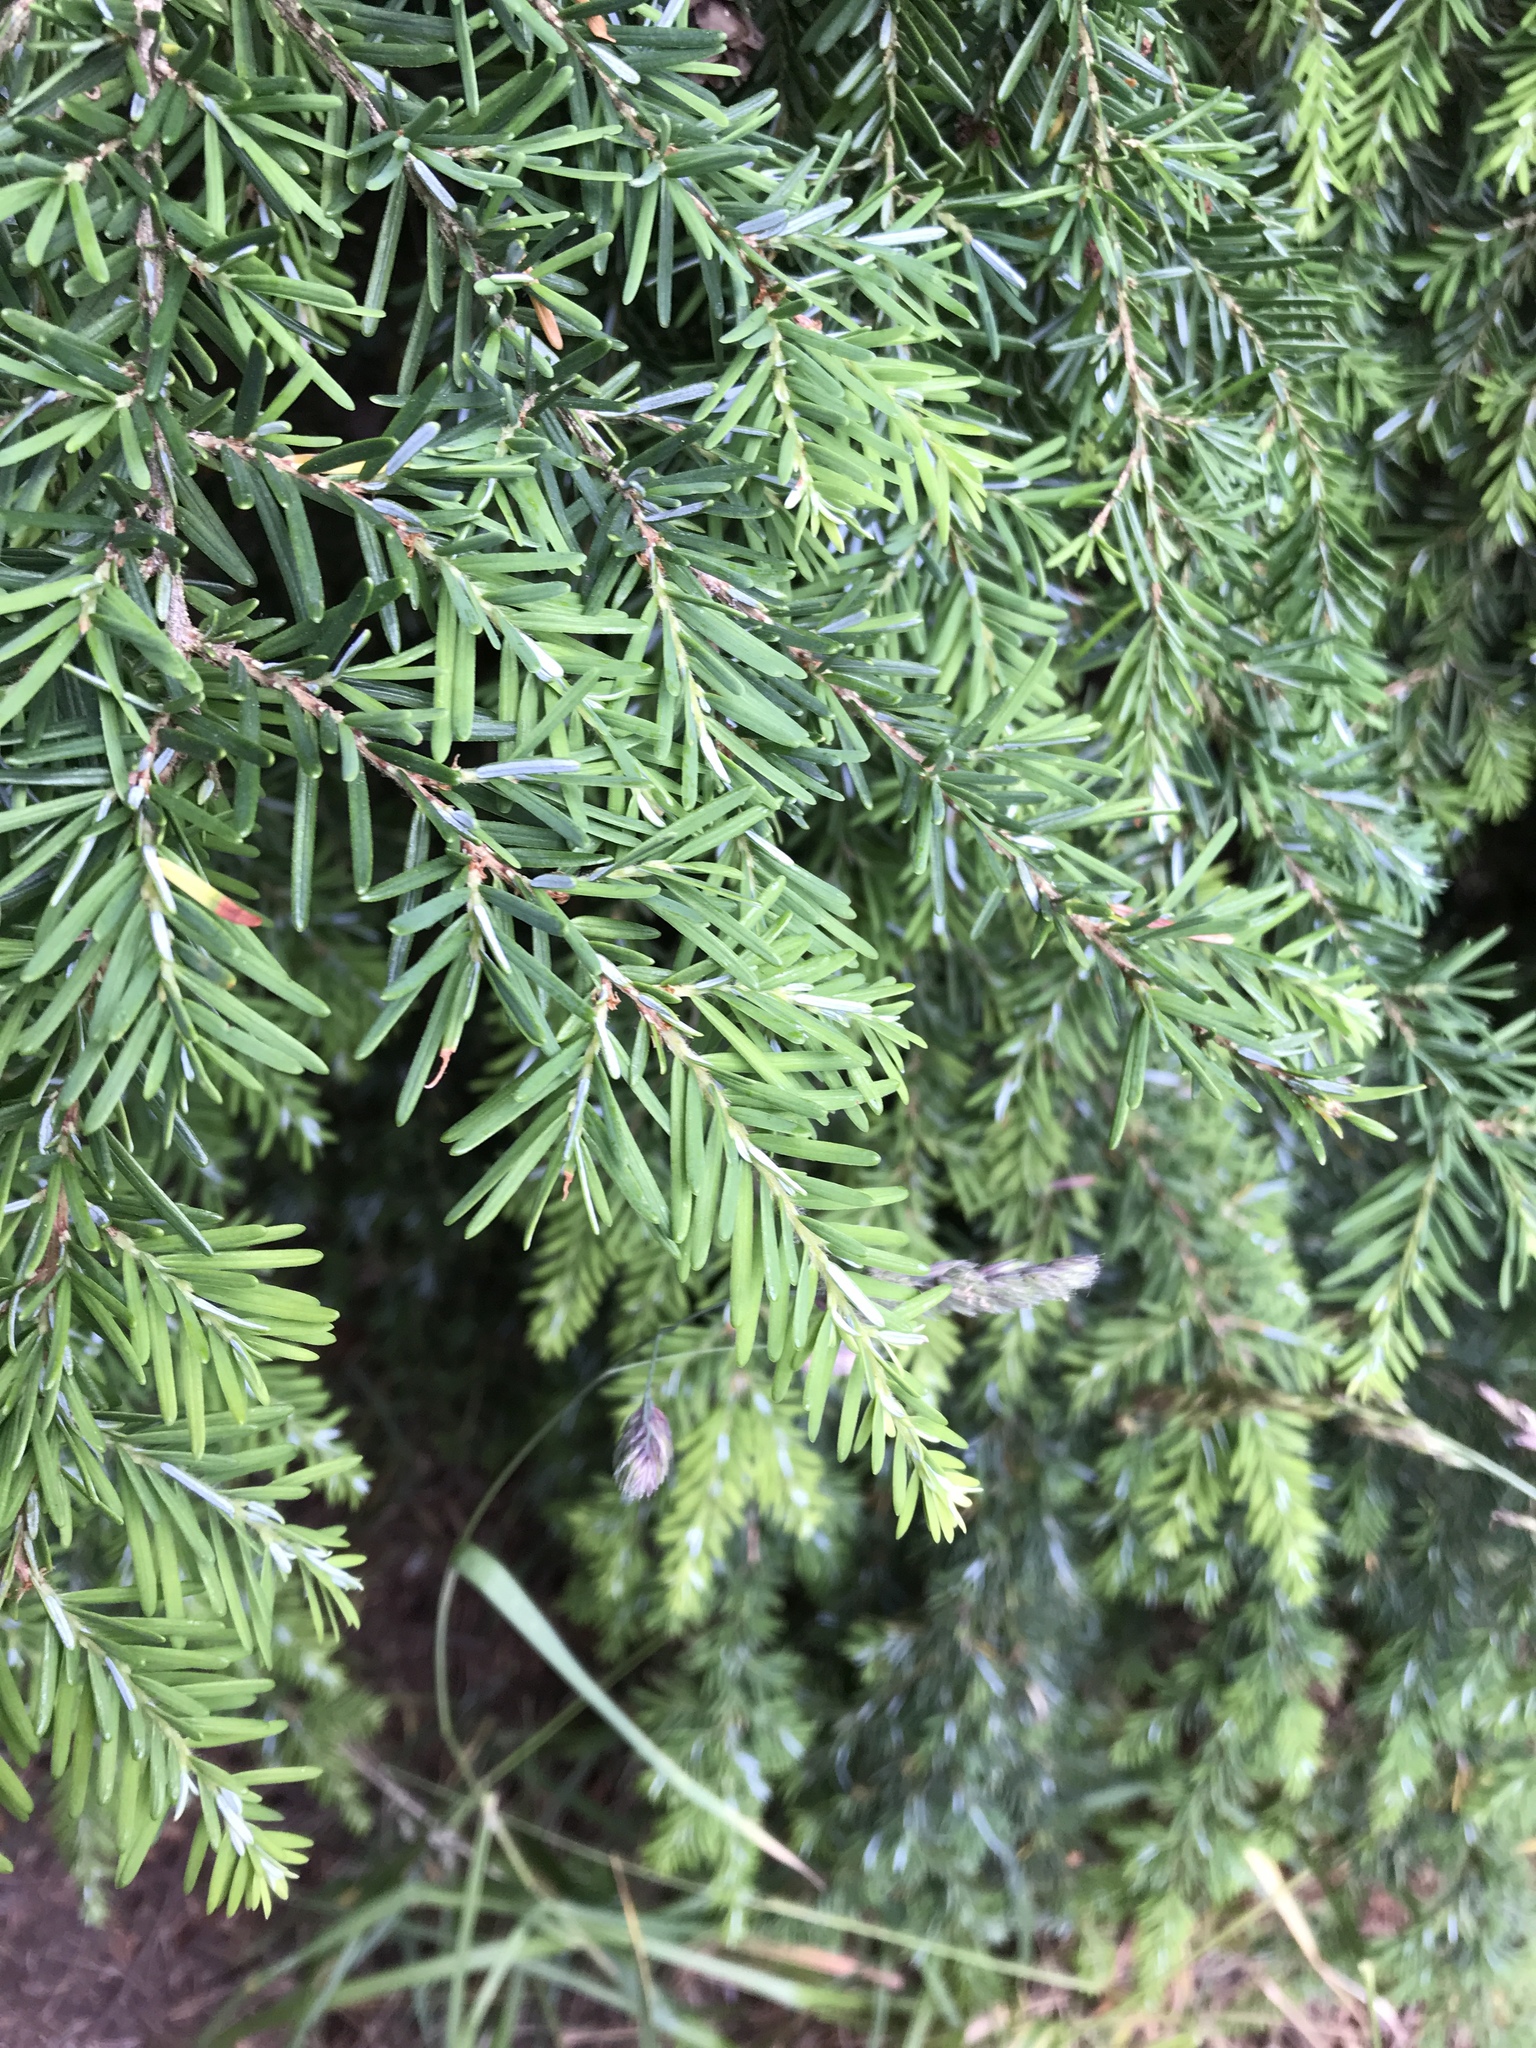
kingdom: Plantae
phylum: Tracheophyta
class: Pinopsida
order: Pinales
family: Pinaceae
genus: Tsuga
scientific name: Tsuga heterophylla
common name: Western hemlock
